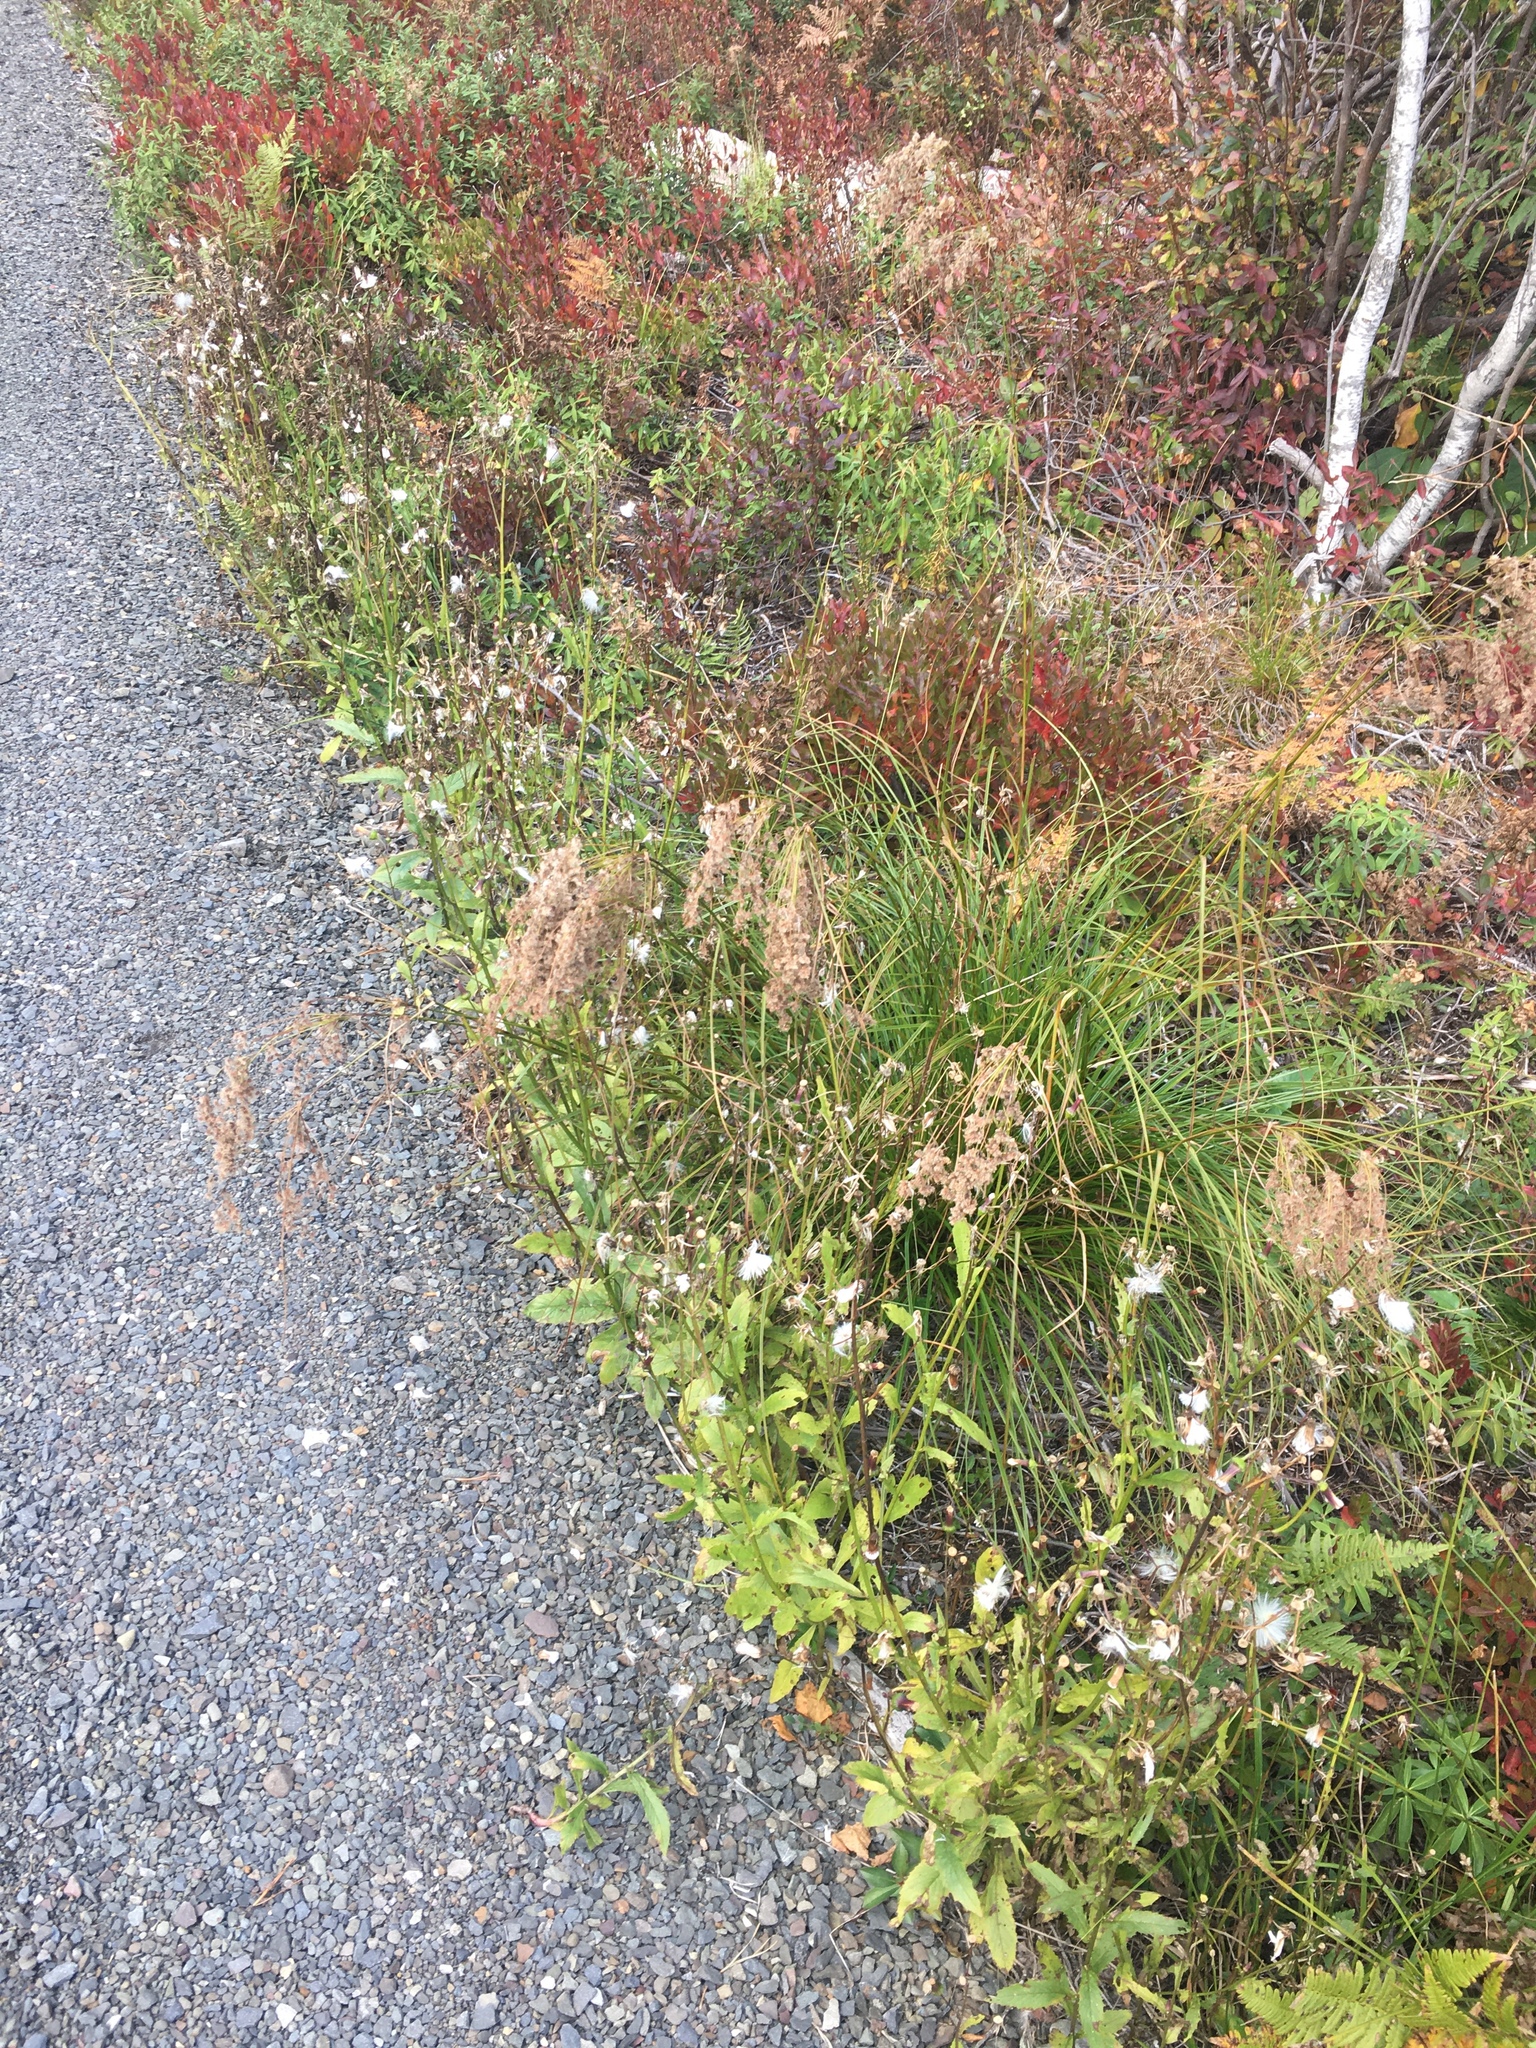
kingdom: Plantae
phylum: Tracheophyta
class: Magnoliopsida
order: Asterales
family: Asteraceae
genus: Erechtites
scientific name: Erechtites hieraciifolius
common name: American burnweed
